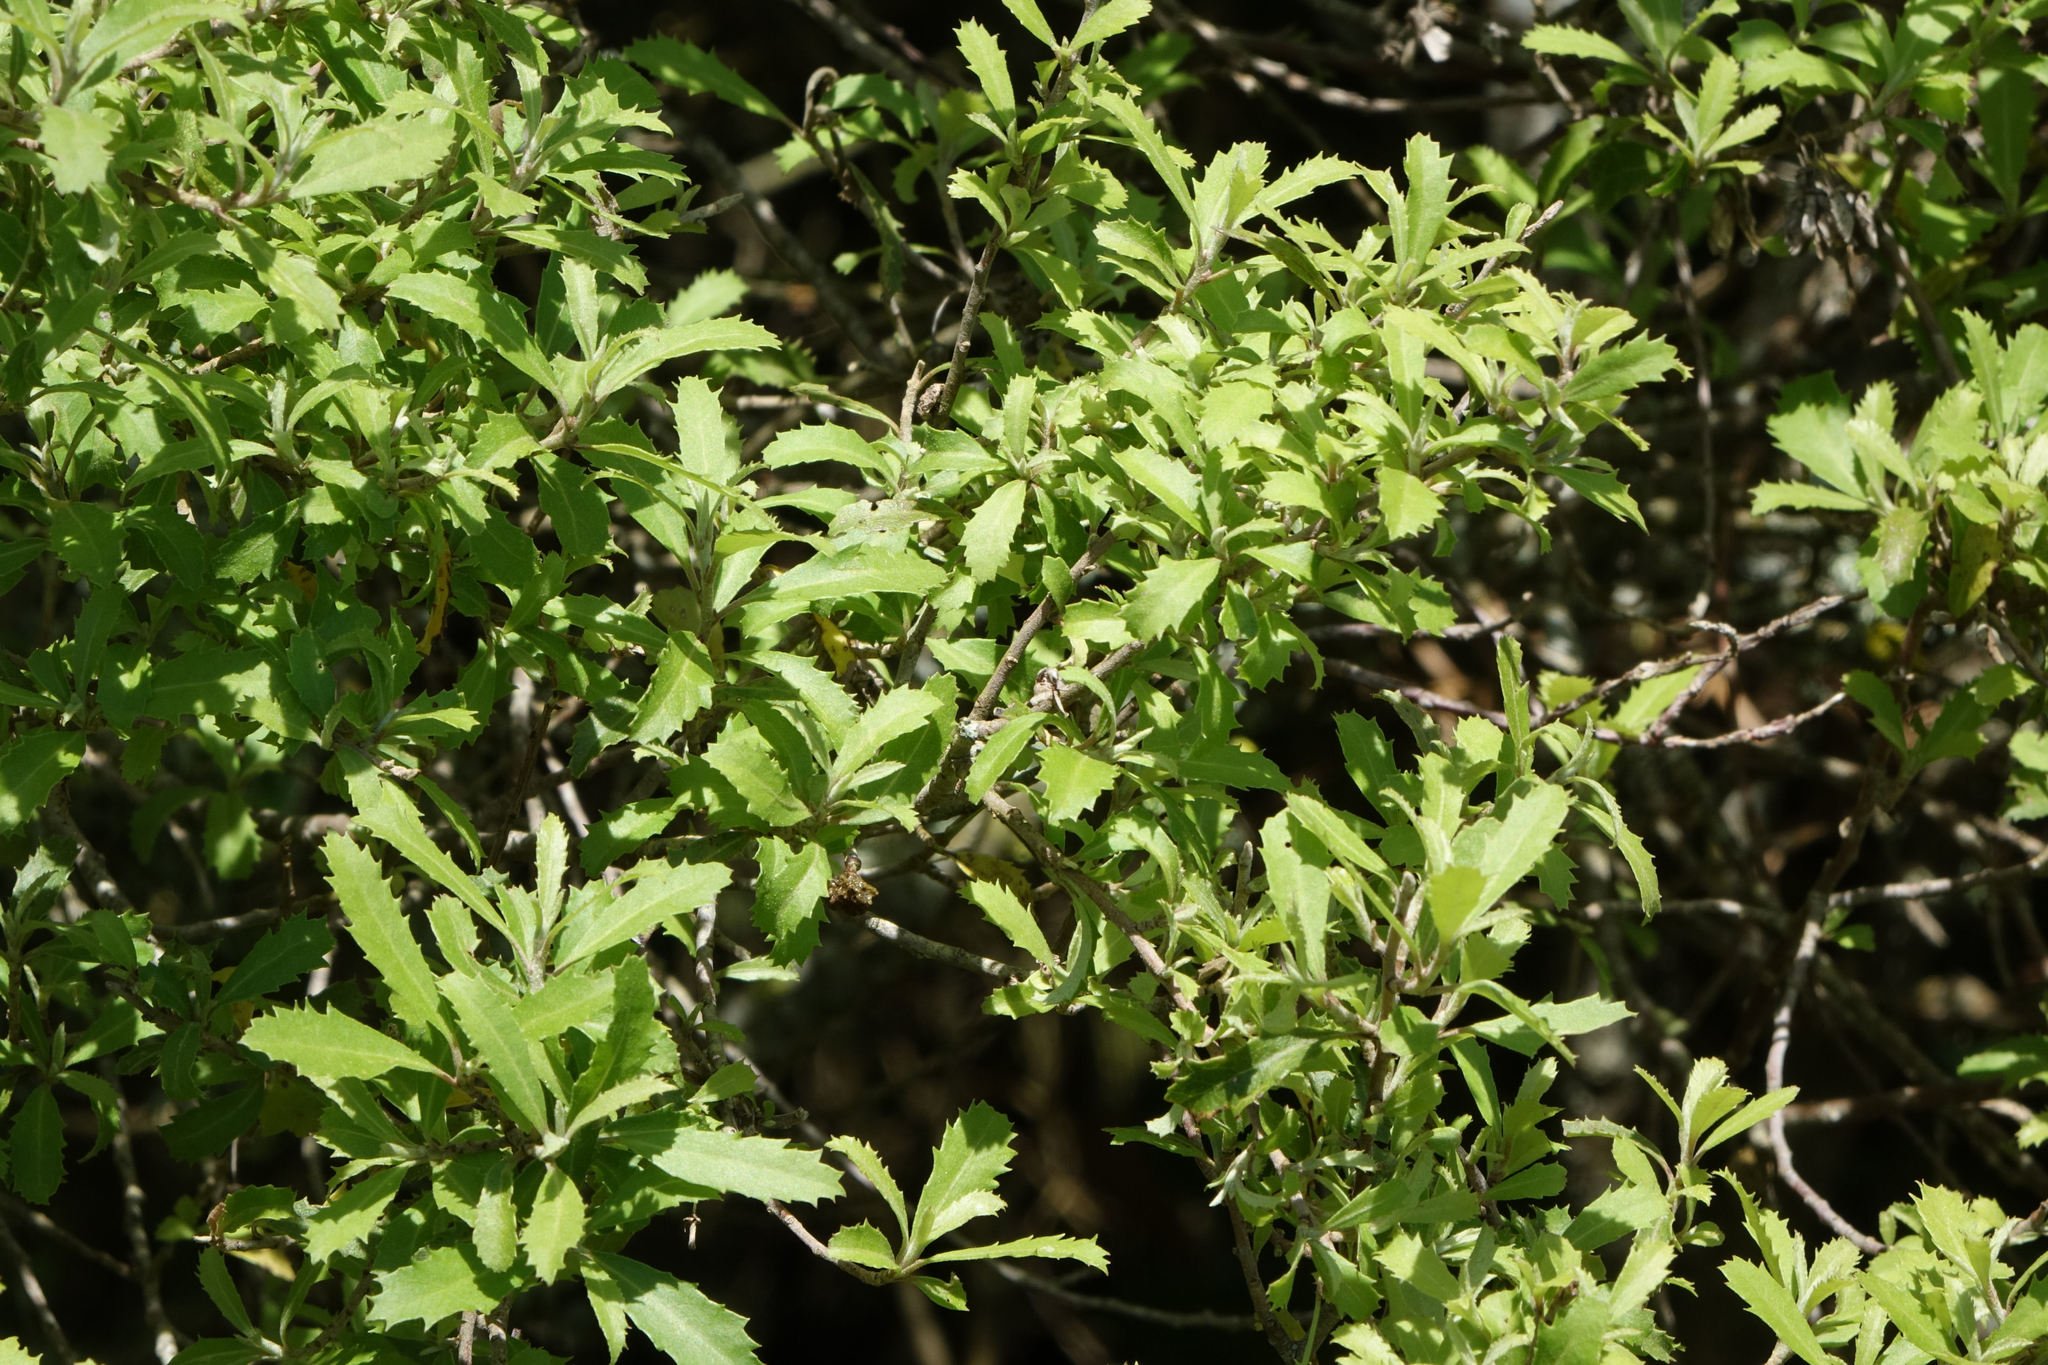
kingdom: Plantae
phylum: Tracheophyta
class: Magnoliopsida
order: Malvales
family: Malvaceae
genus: Hoheria
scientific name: Hoheria angustifolia
